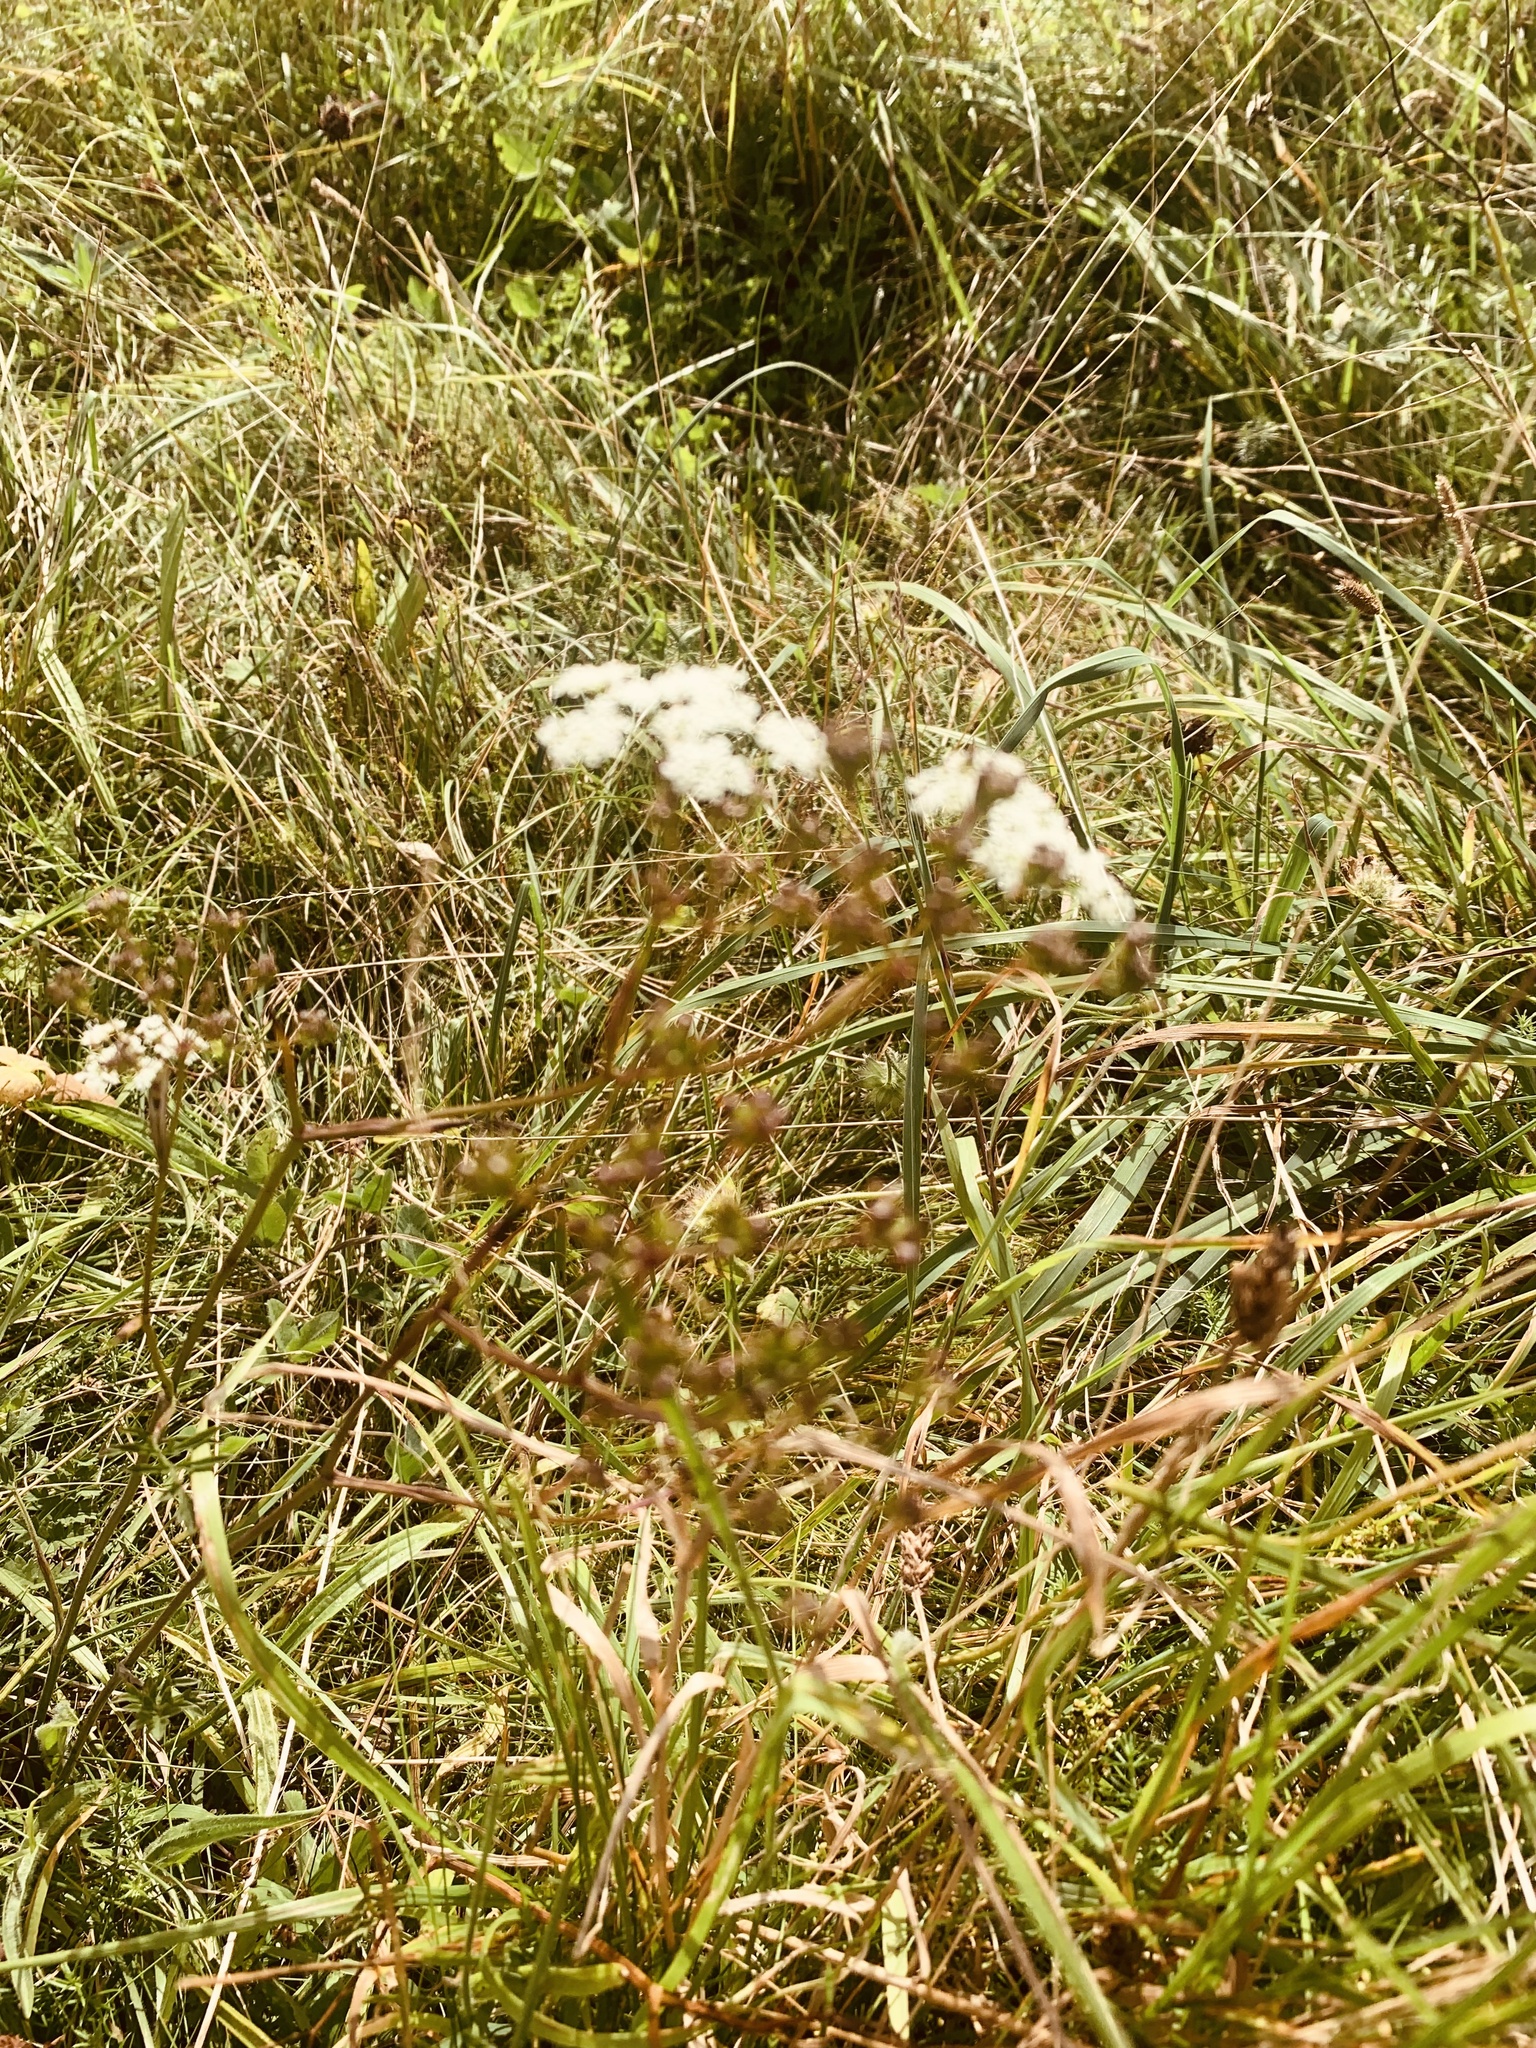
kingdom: Plantae
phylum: Tracheophyta
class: Magnoliopsida
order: Apiales
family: Apiaceae
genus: Pimpinella
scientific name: Pimpinella saxifraga
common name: Burnet-saxifrage
